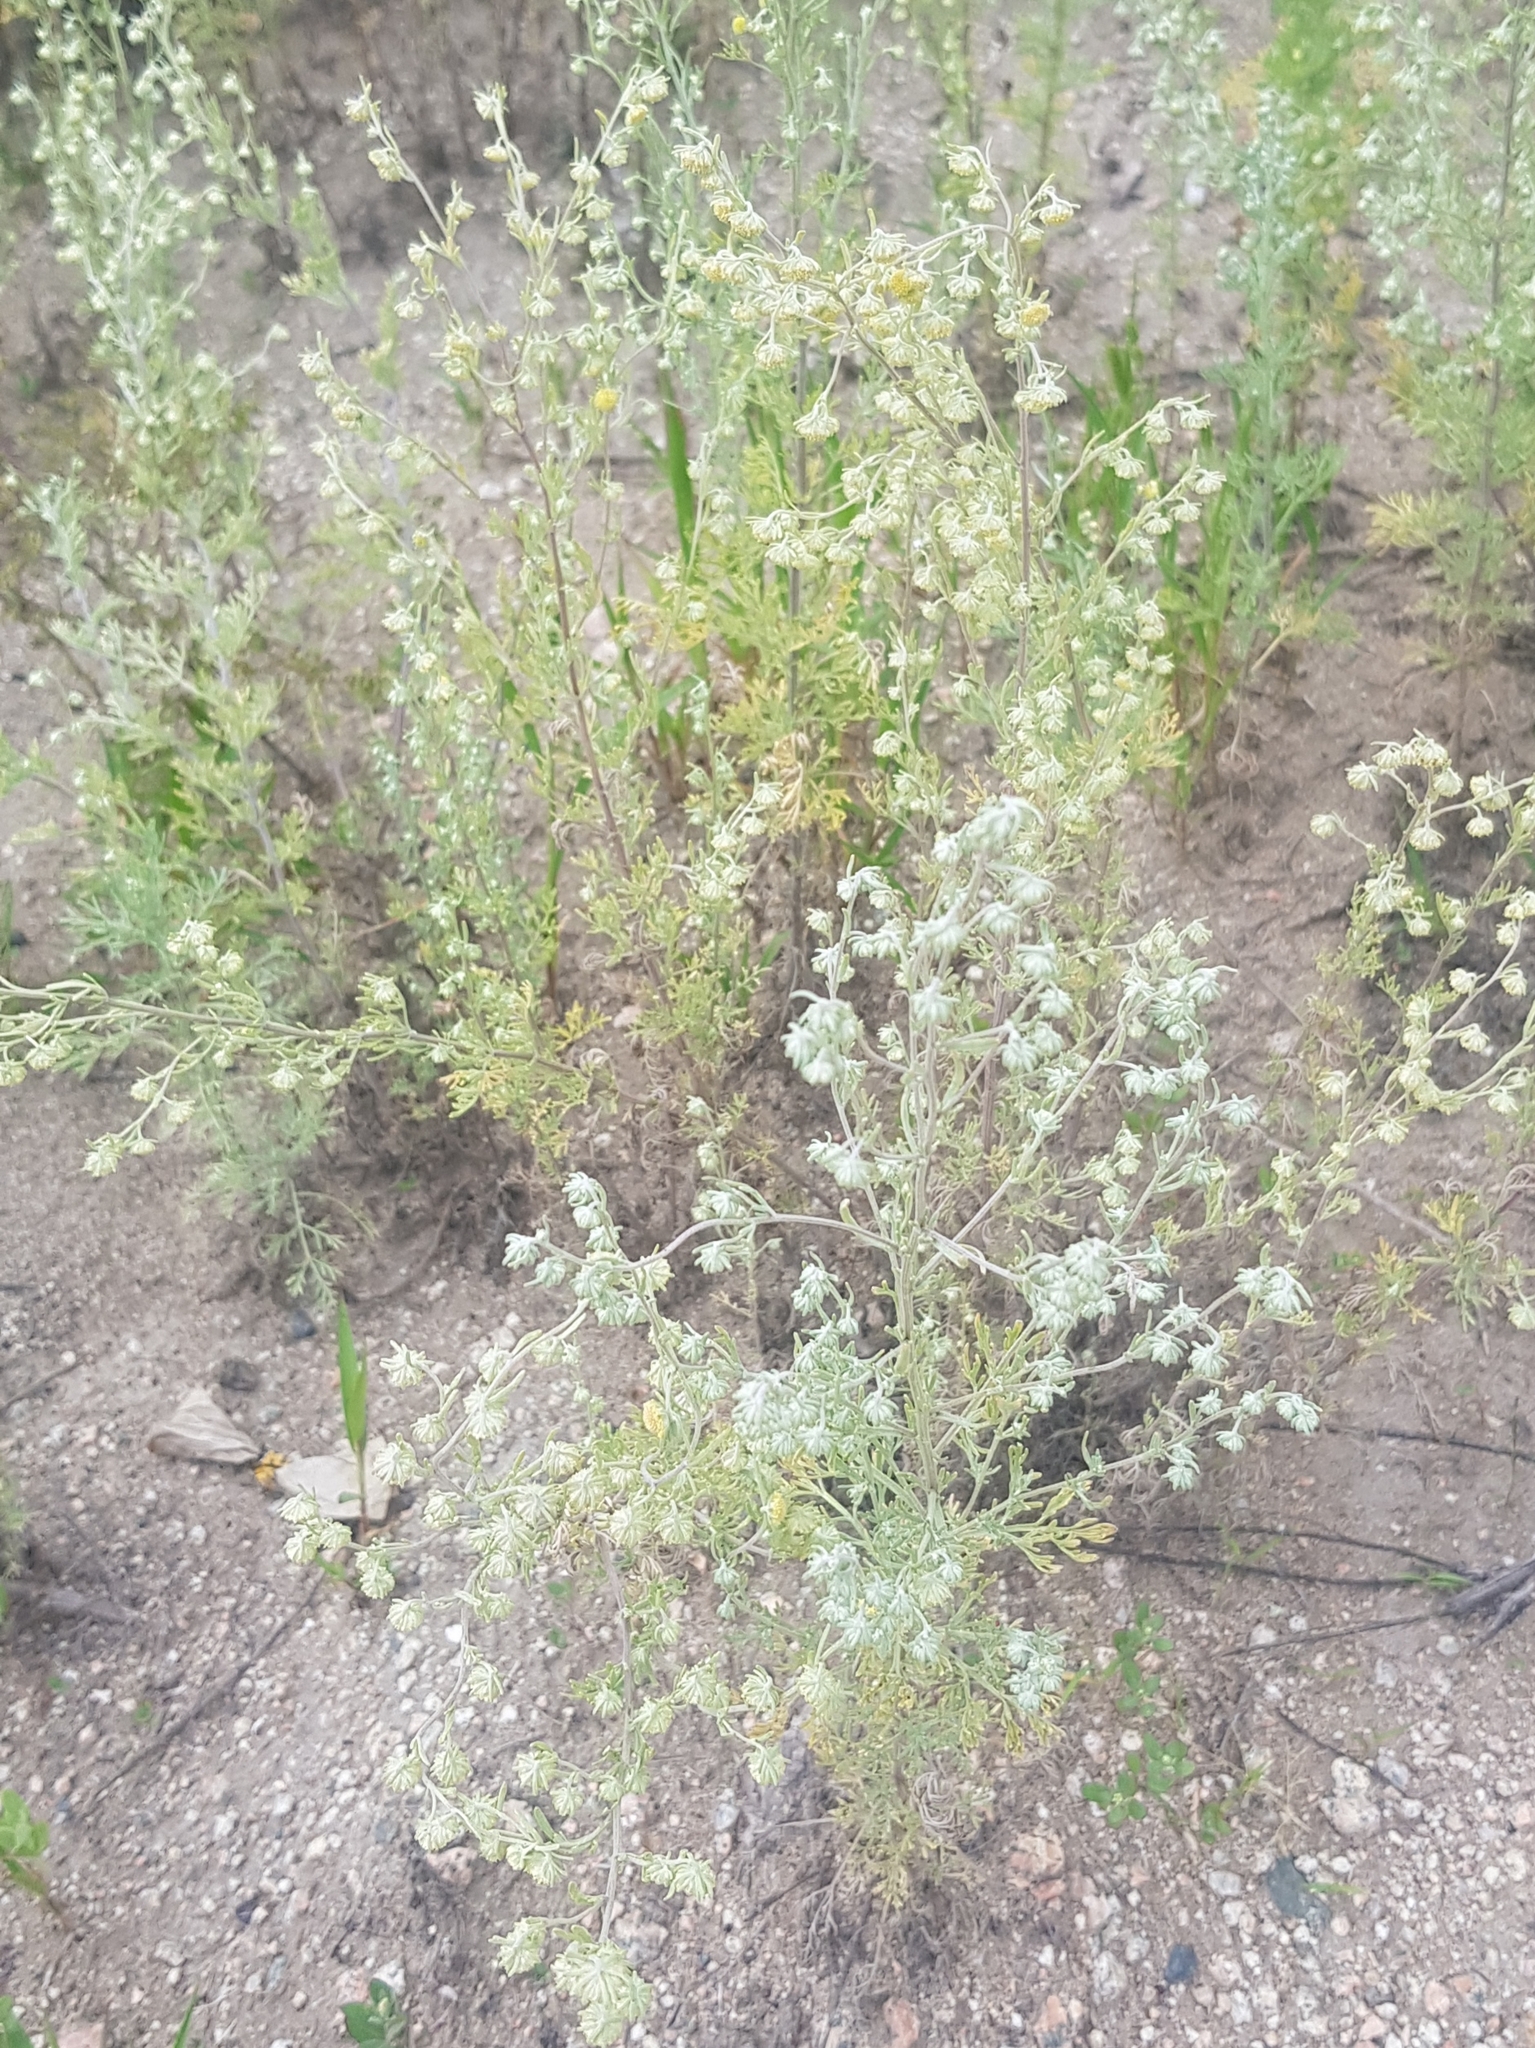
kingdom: Plantae
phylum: Tracheophyta
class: Magnoliopsida
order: Asterales
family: Asteraceae
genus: Artemisia
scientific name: Artemisia sieversiana
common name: Sieversian wormwood
